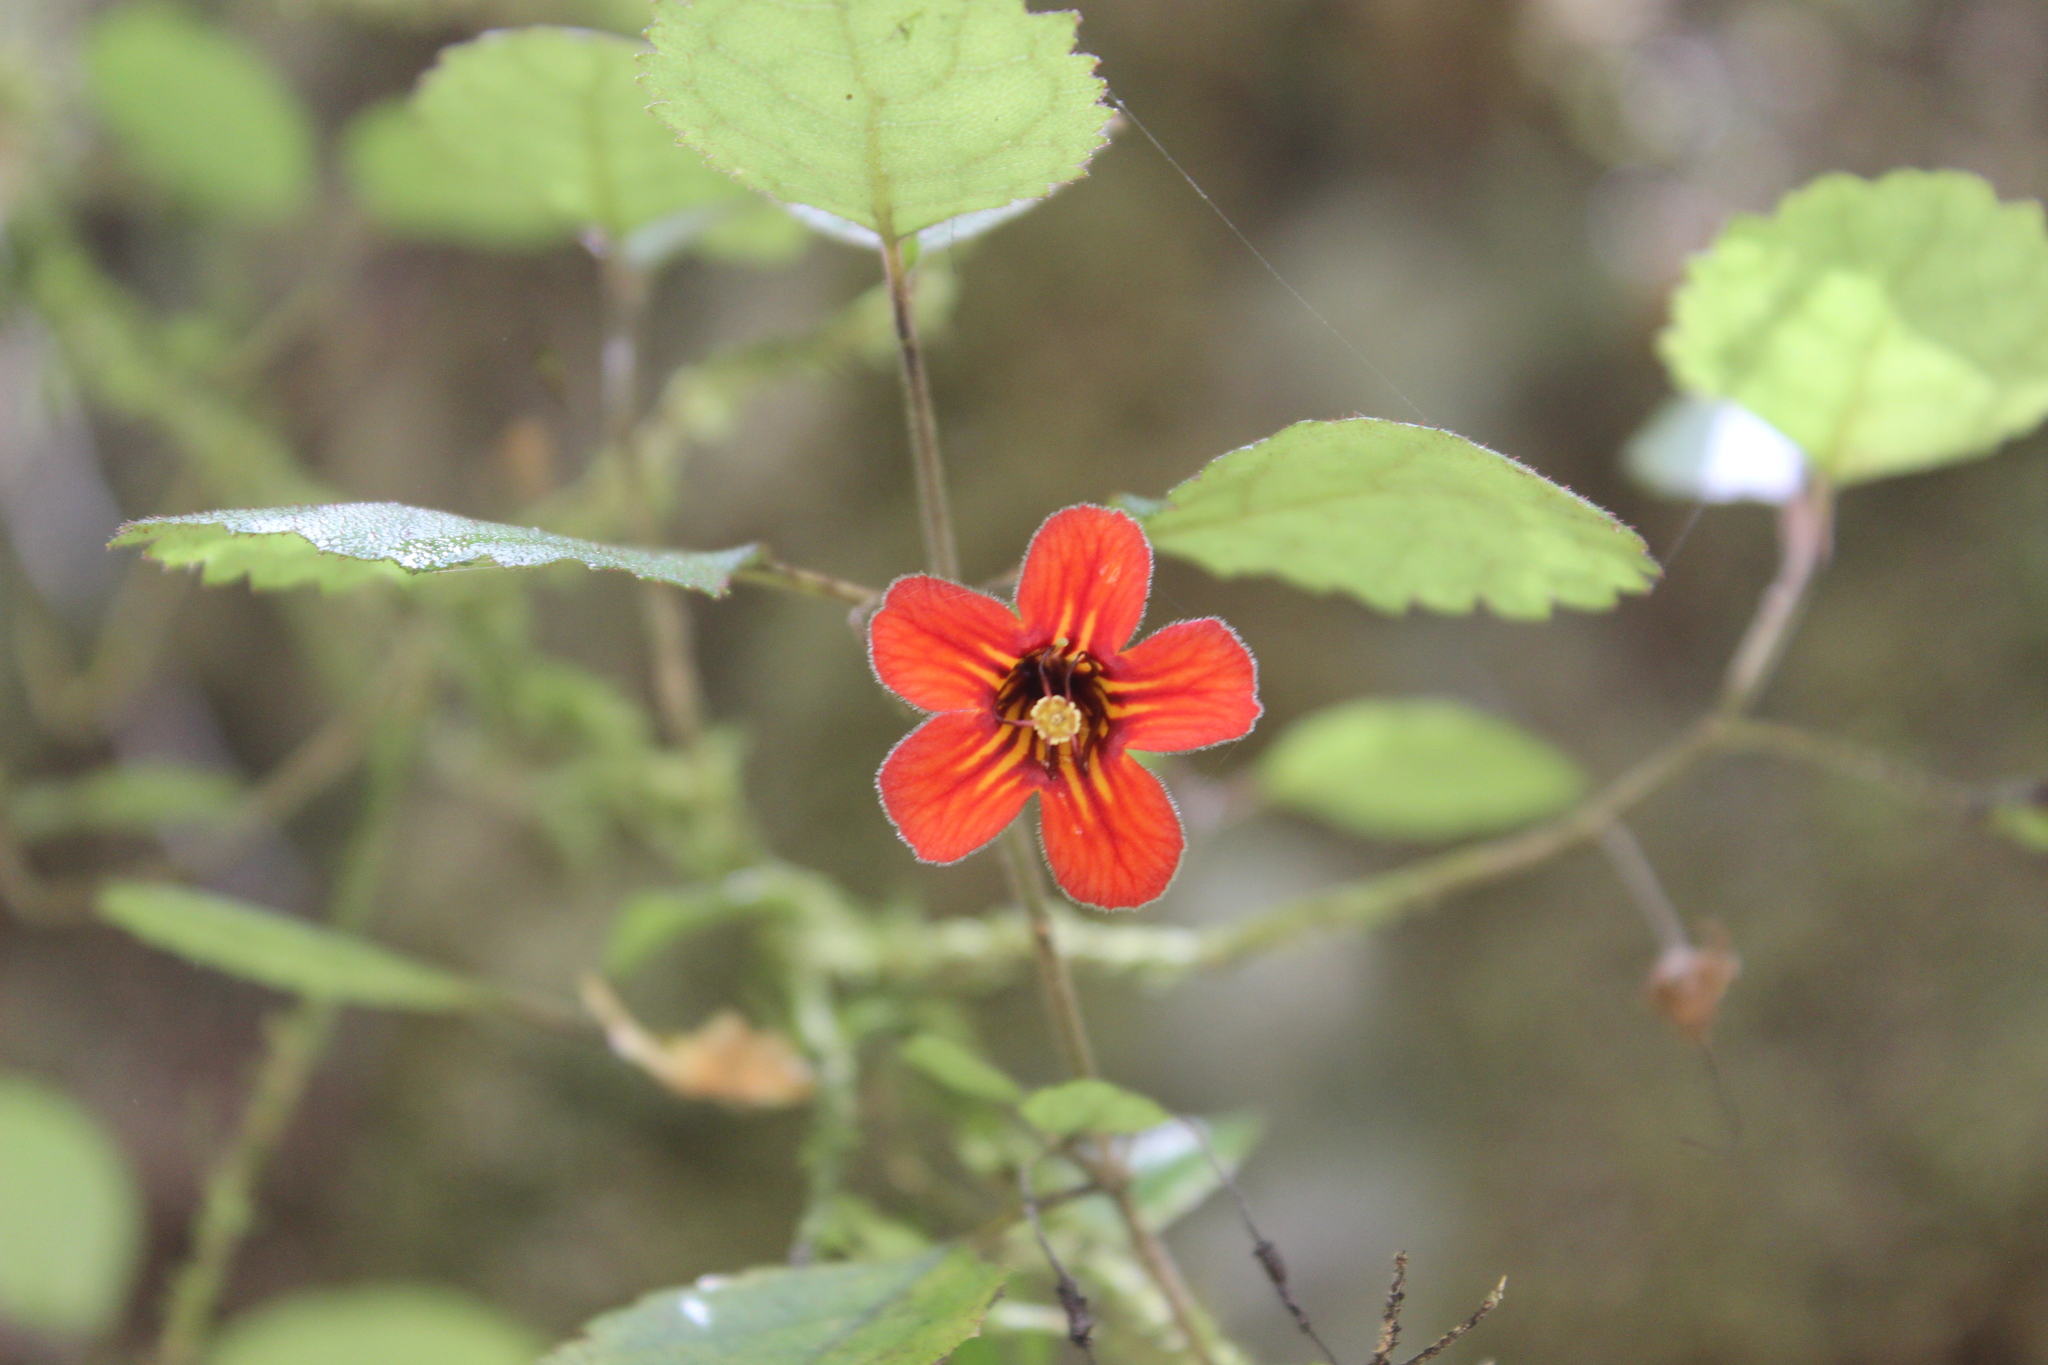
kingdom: Plantae
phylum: Tracheophyta
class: Magnoliopsida
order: Lamiales
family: Gesneriaceae
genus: Rhabdothamnus
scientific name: Rhabdothamnus solandri
